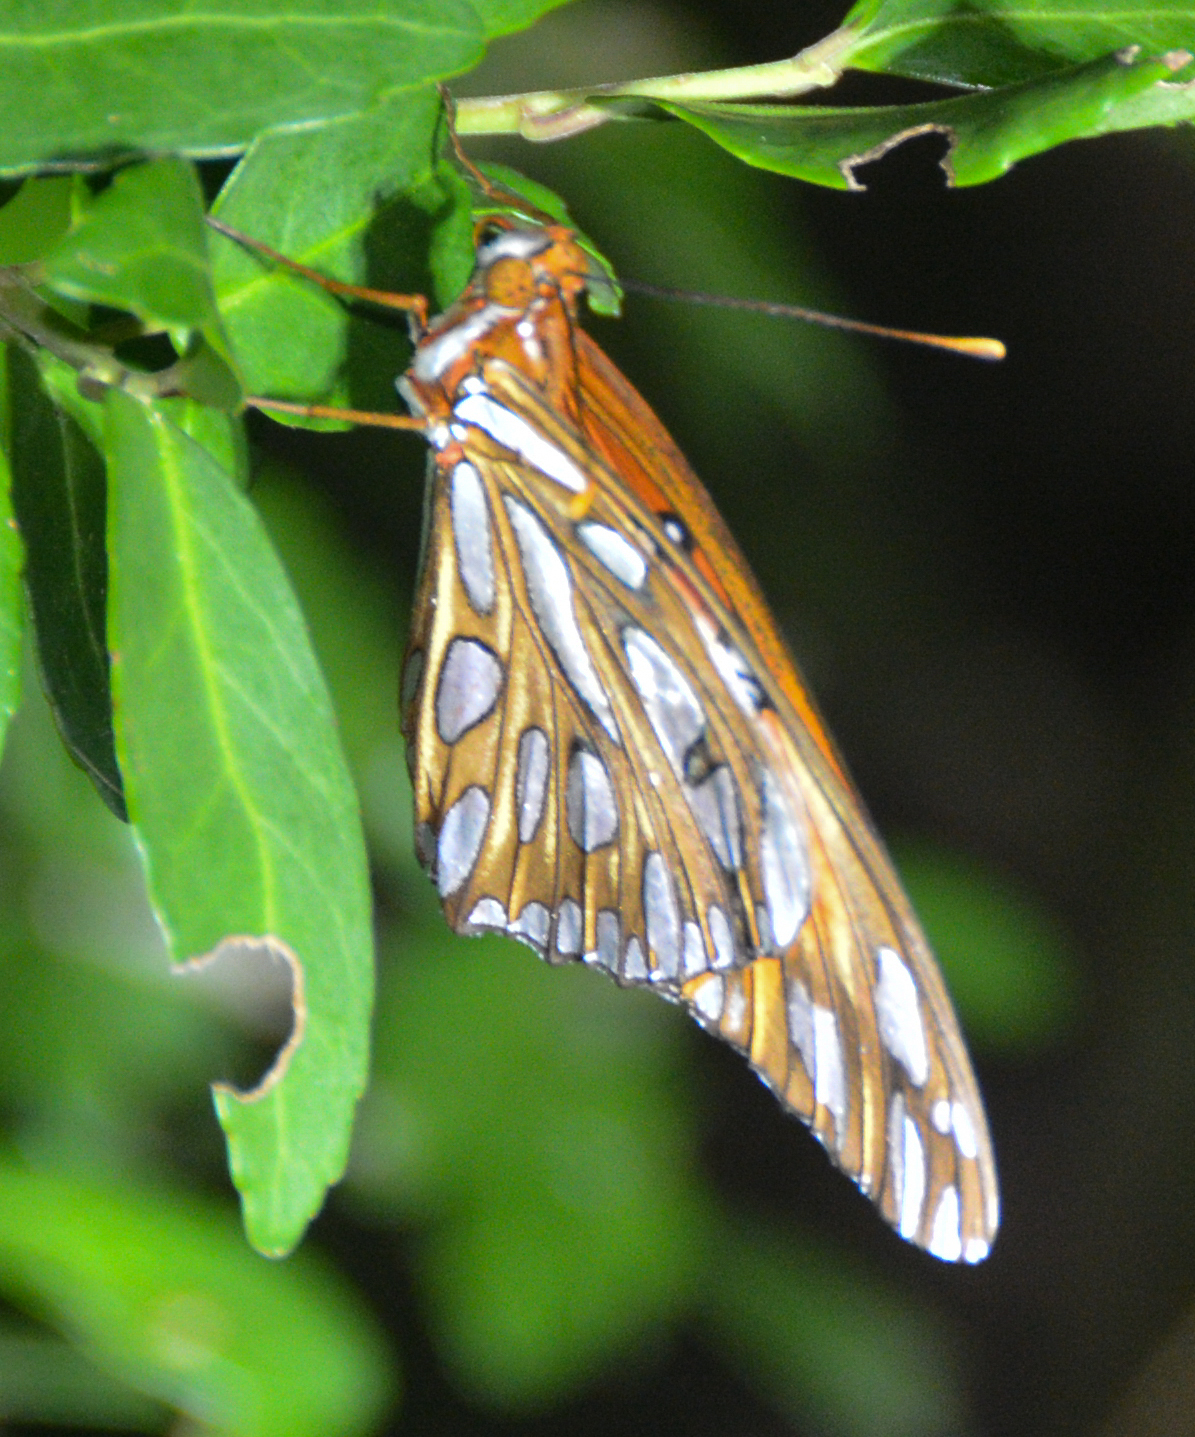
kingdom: Animalia
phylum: Arthropoda
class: Insecta
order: Lepidoptera
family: Nymphalidae
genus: Dione
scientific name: Dione vanillae
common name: Gulf fritillary
